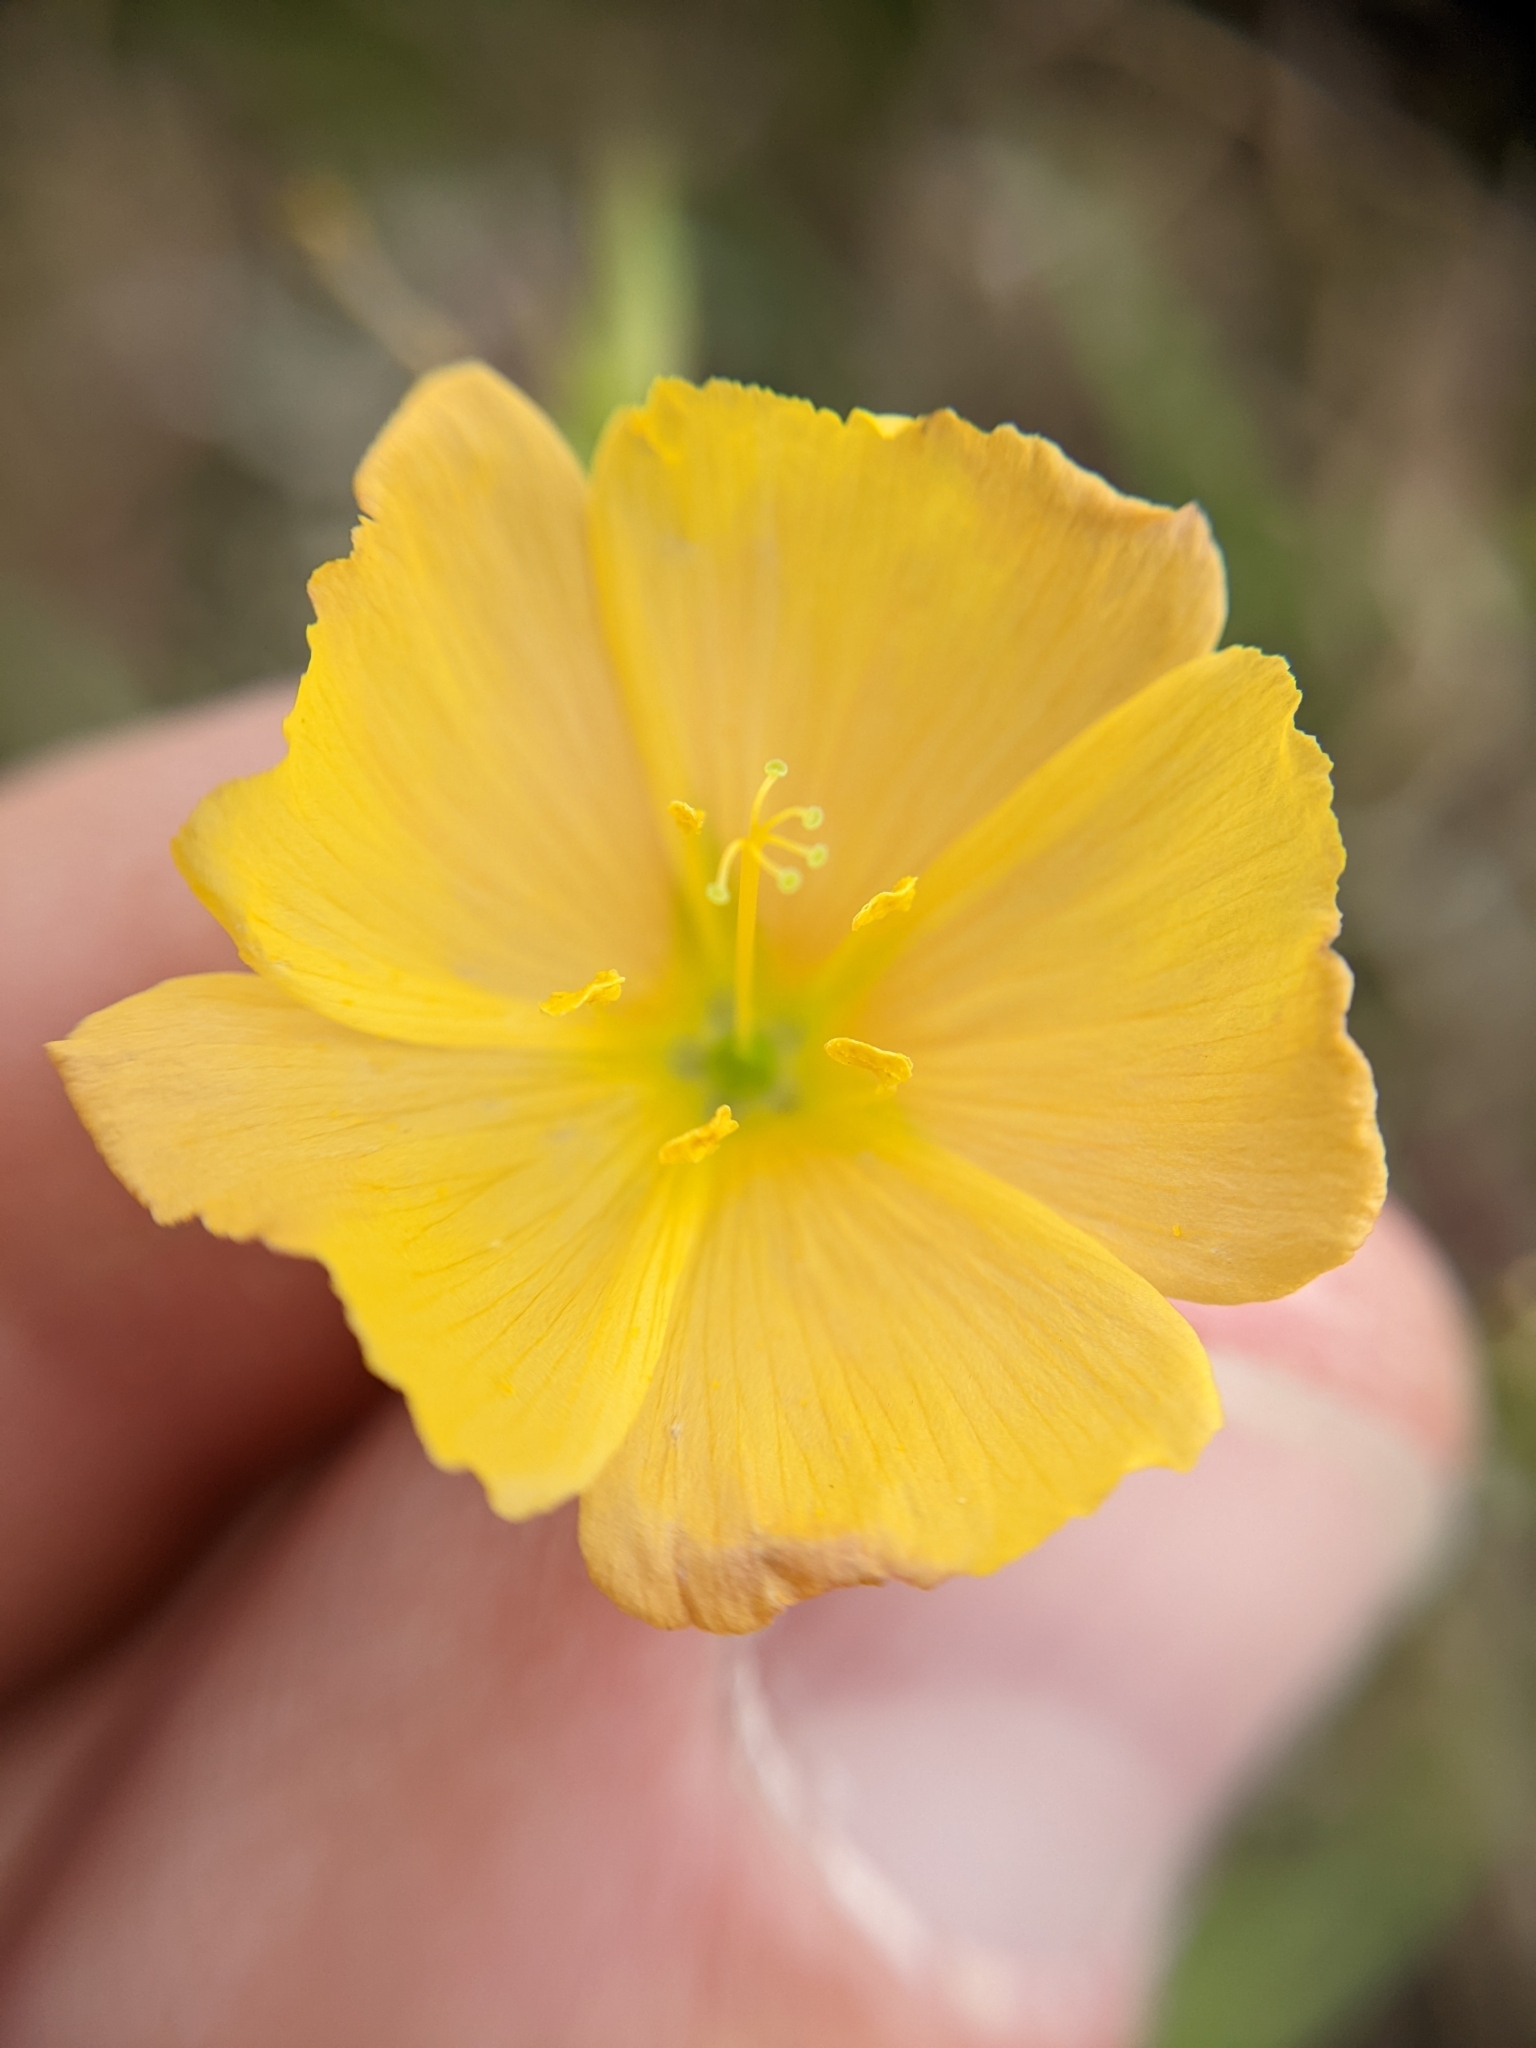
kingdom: Plantae
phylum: Tracheophyta
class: Magnoliopsida
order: Malpighiales
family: Linaceae
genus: Linum
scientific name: Linum rigidum
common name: Stiff-stem flax
